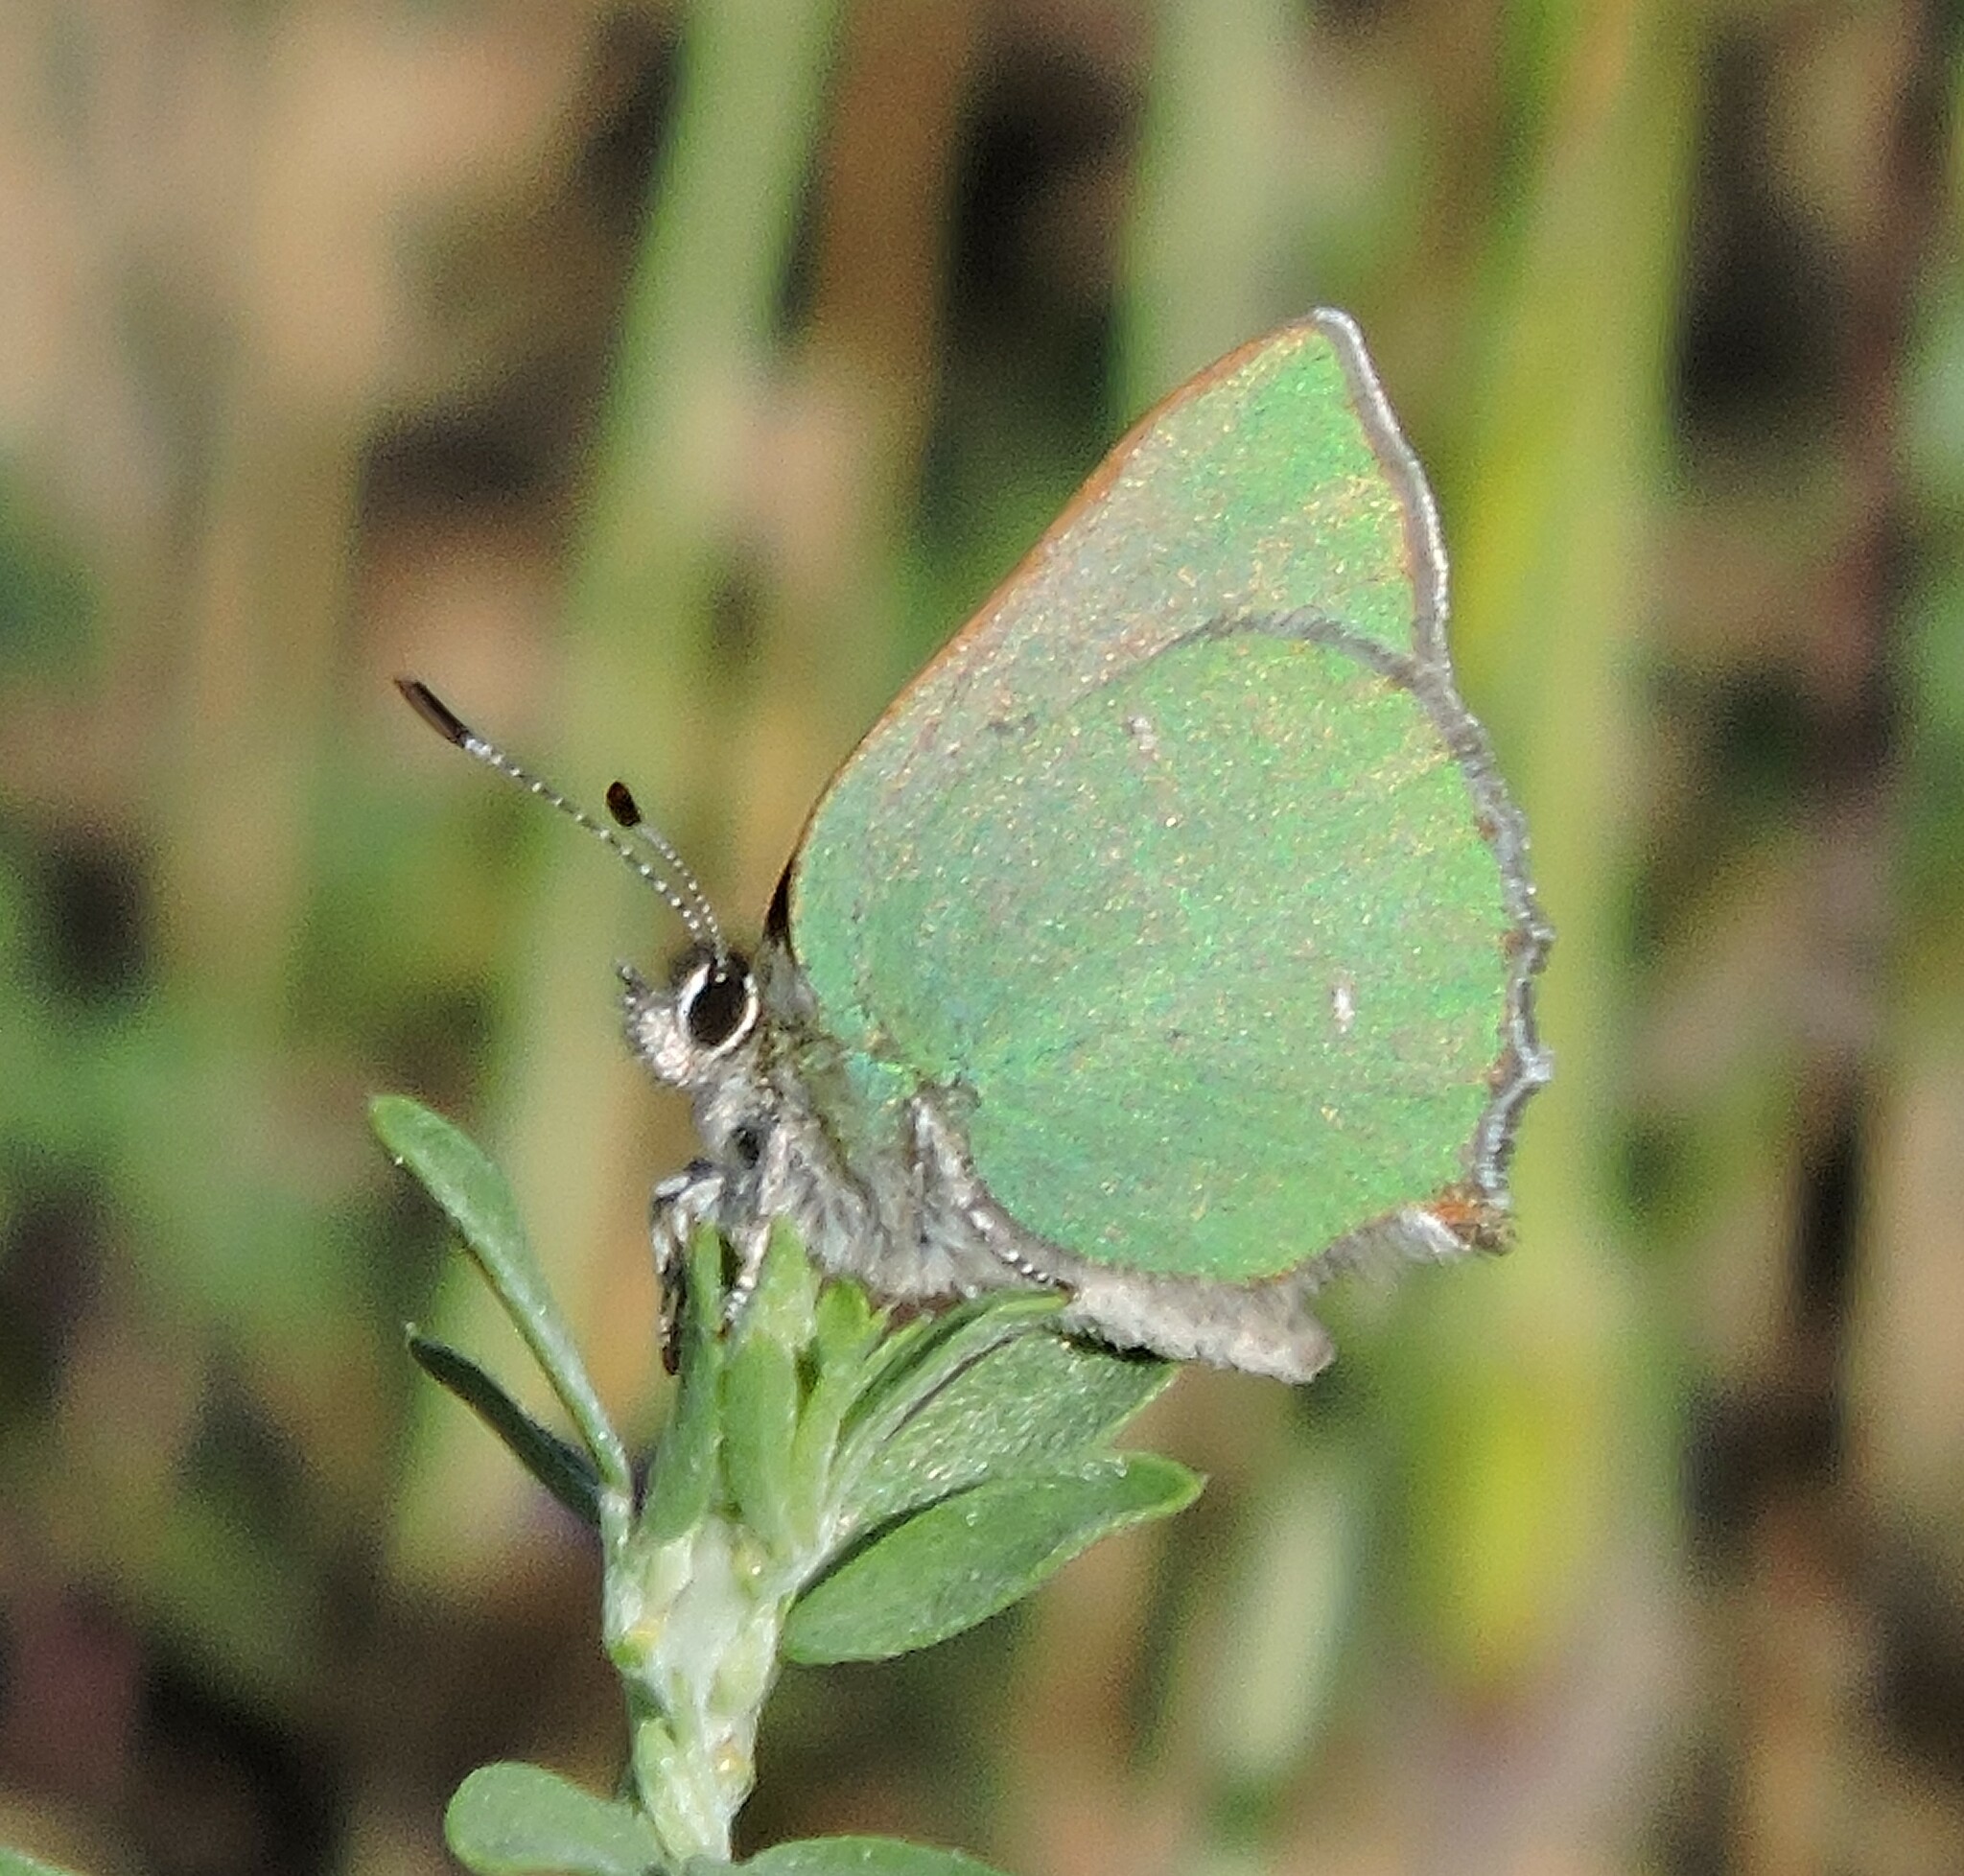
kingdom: Animalia
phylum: Arthropoda
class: Insecta
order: Lepidoptera
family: Lycaenidae
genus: Callophrys
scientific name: Callophrys dumetorum
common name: Bramble hairstreak
